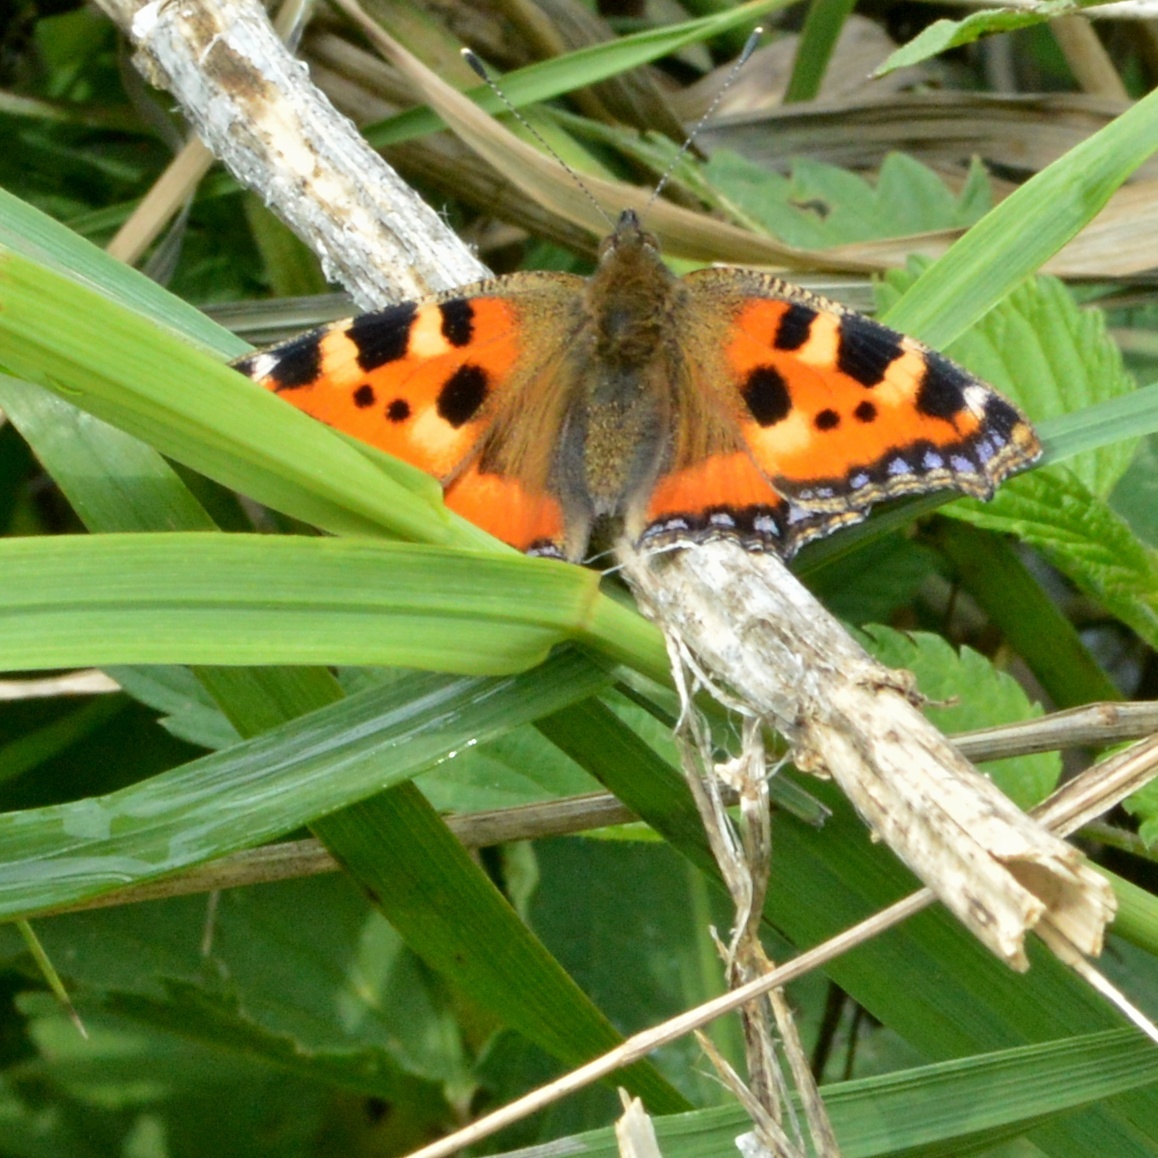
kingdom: Animalia
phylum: Arthropoda
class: Insecta
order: Lepidoptera
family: Nymphalidae
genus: Aglais
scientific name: Aglais urticae
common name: Small tortoiseshell
